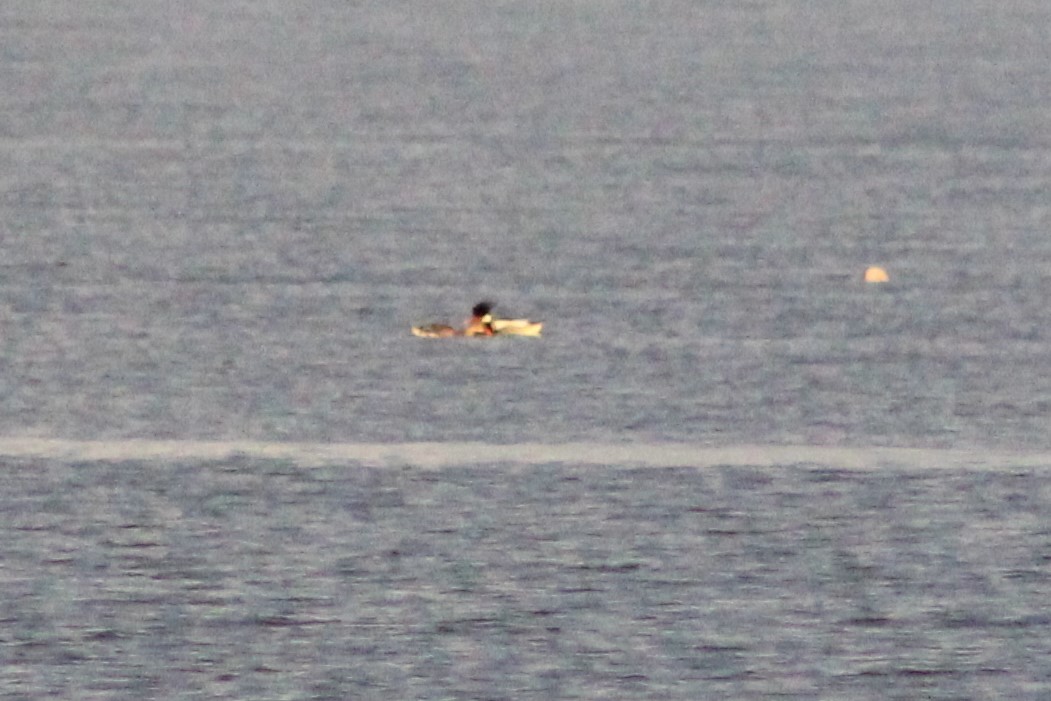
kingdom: Animalia
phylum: Chordata
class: Aves
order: Anseriformes
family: Anatidae
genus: Mergus
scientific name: Mergus serrator
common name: Red-breasted merganser
